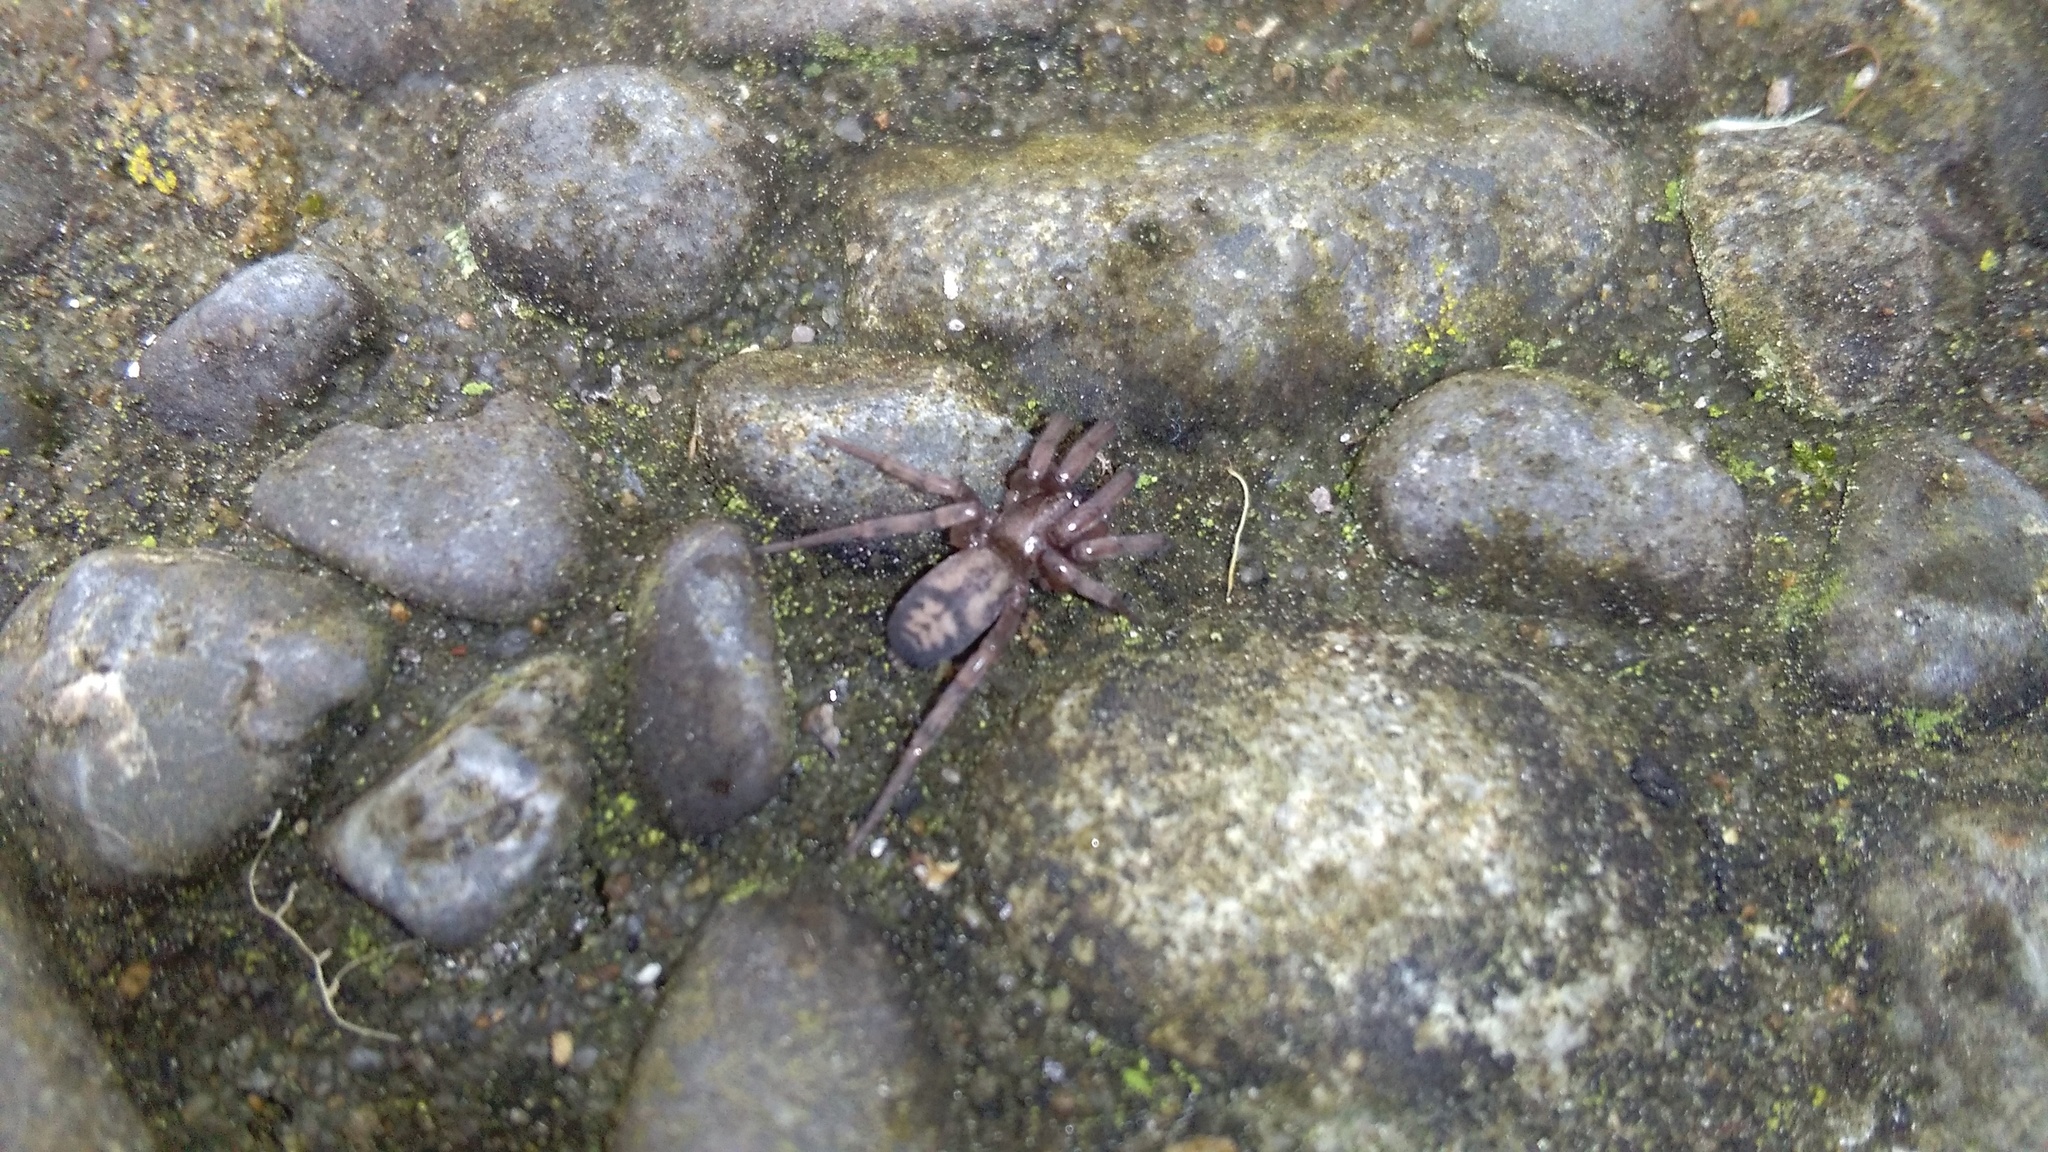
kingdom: Animalia
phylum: Arthropoda
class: Arachnida
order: Araneae
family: Gnaphosidae
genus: Intruda
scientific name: Intruda signata
